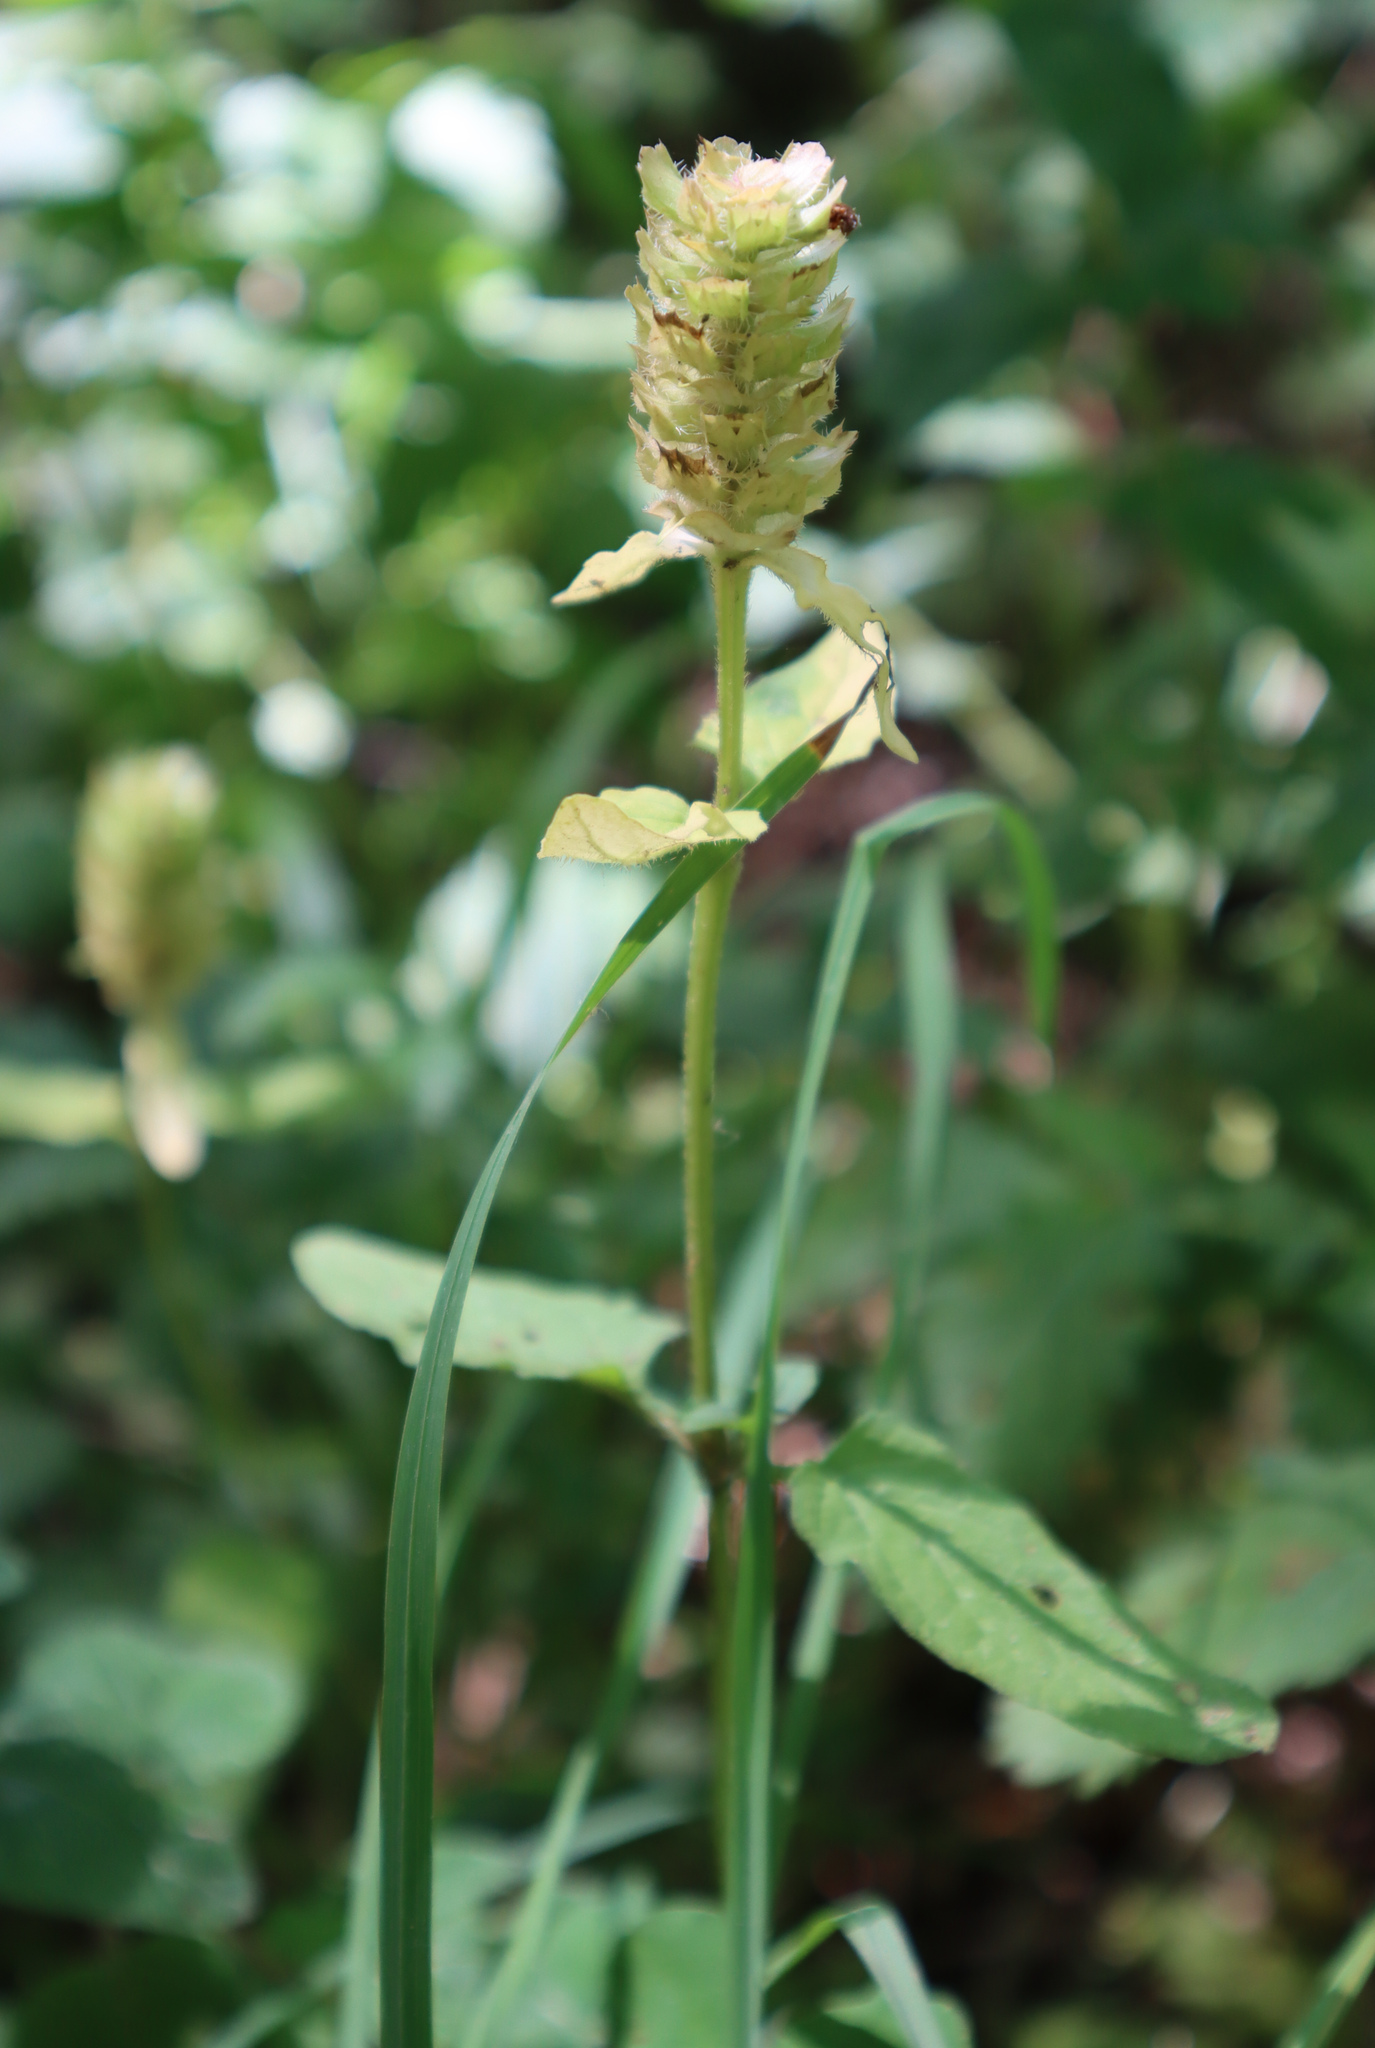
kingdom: Plantae
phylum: Tracheophyta
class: Magnoliopsida
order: Lamiales
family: Lamiaceae
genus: Prunella
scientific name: Prunella vulgaris
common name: Heal-all
